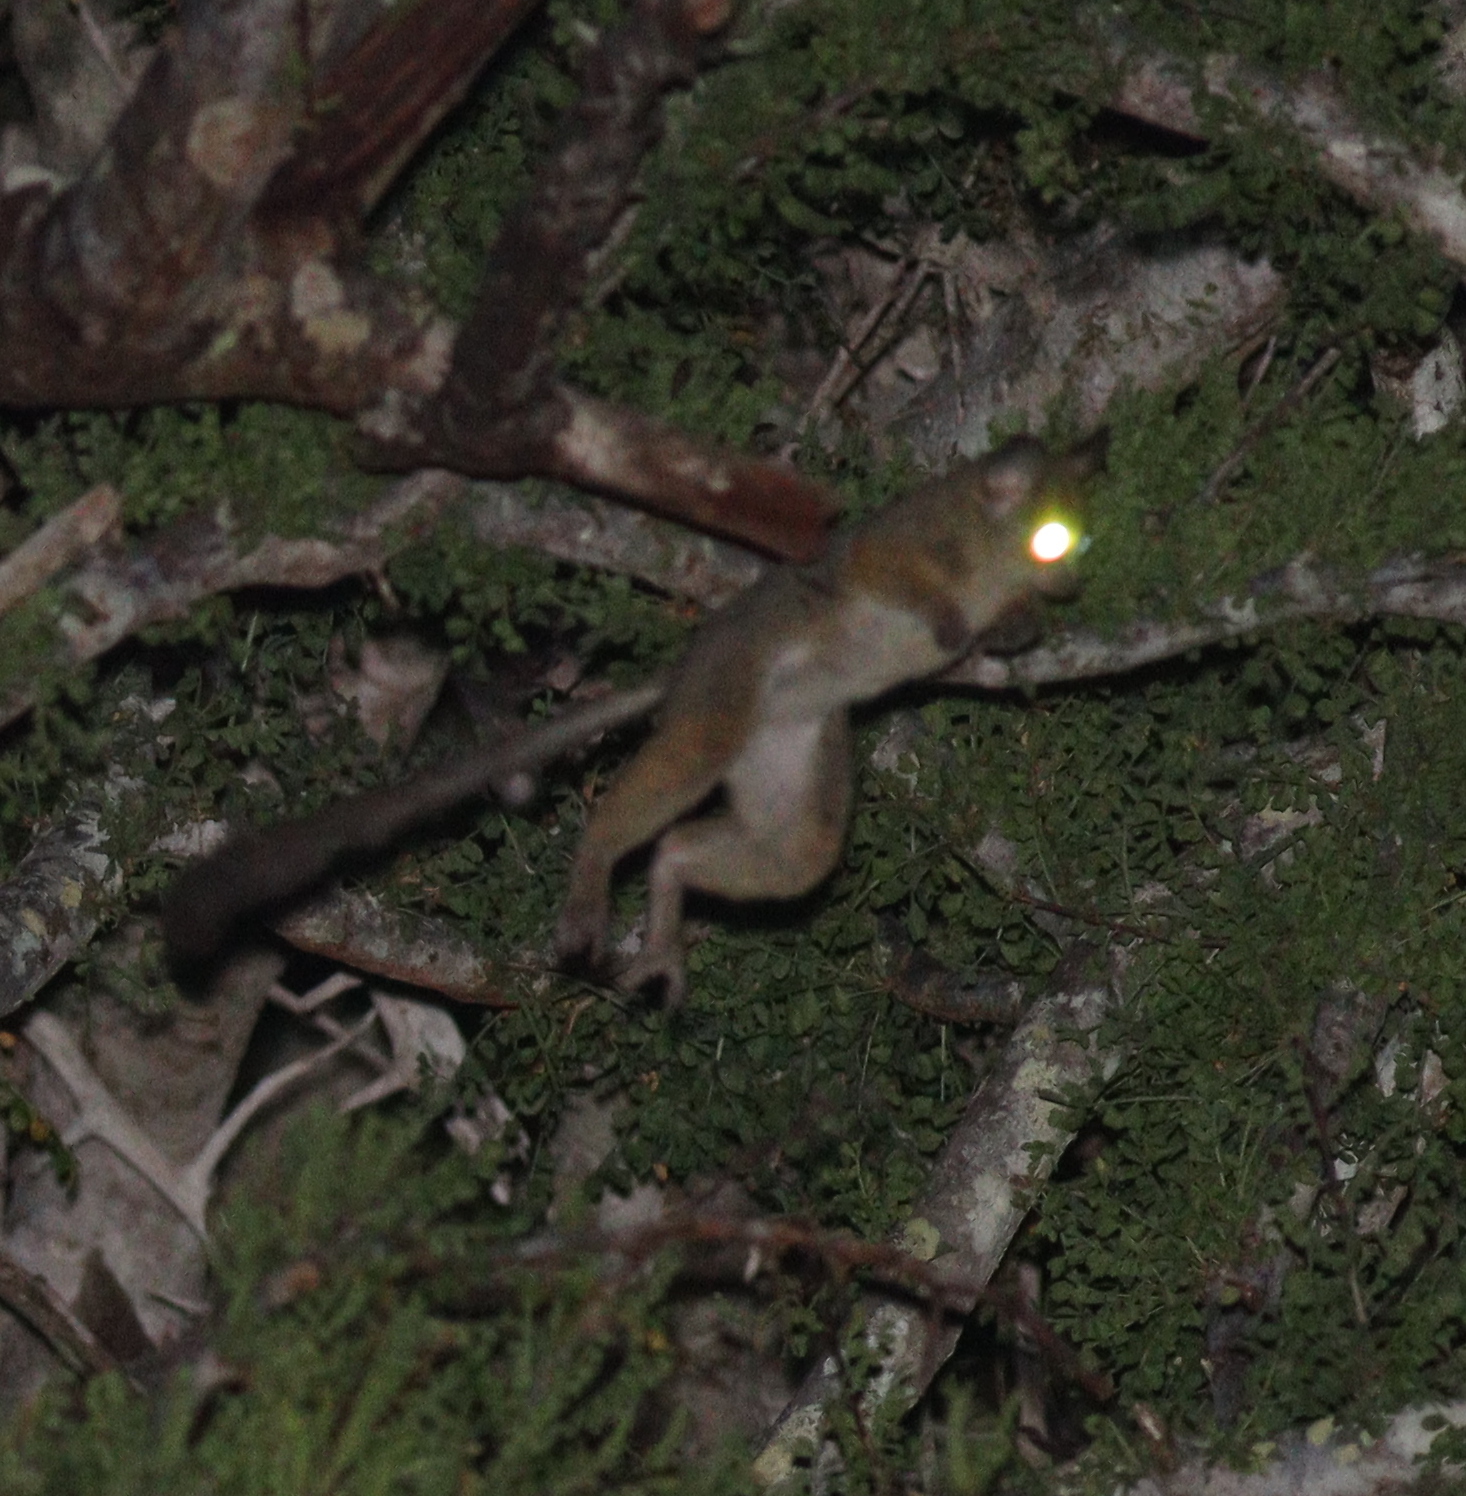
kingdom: Animalia
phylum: Chordata
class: Mammalia
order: Primates
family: Galagidae
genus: Galago
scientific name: Galago senegalensis
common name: Senegal bushbaby
